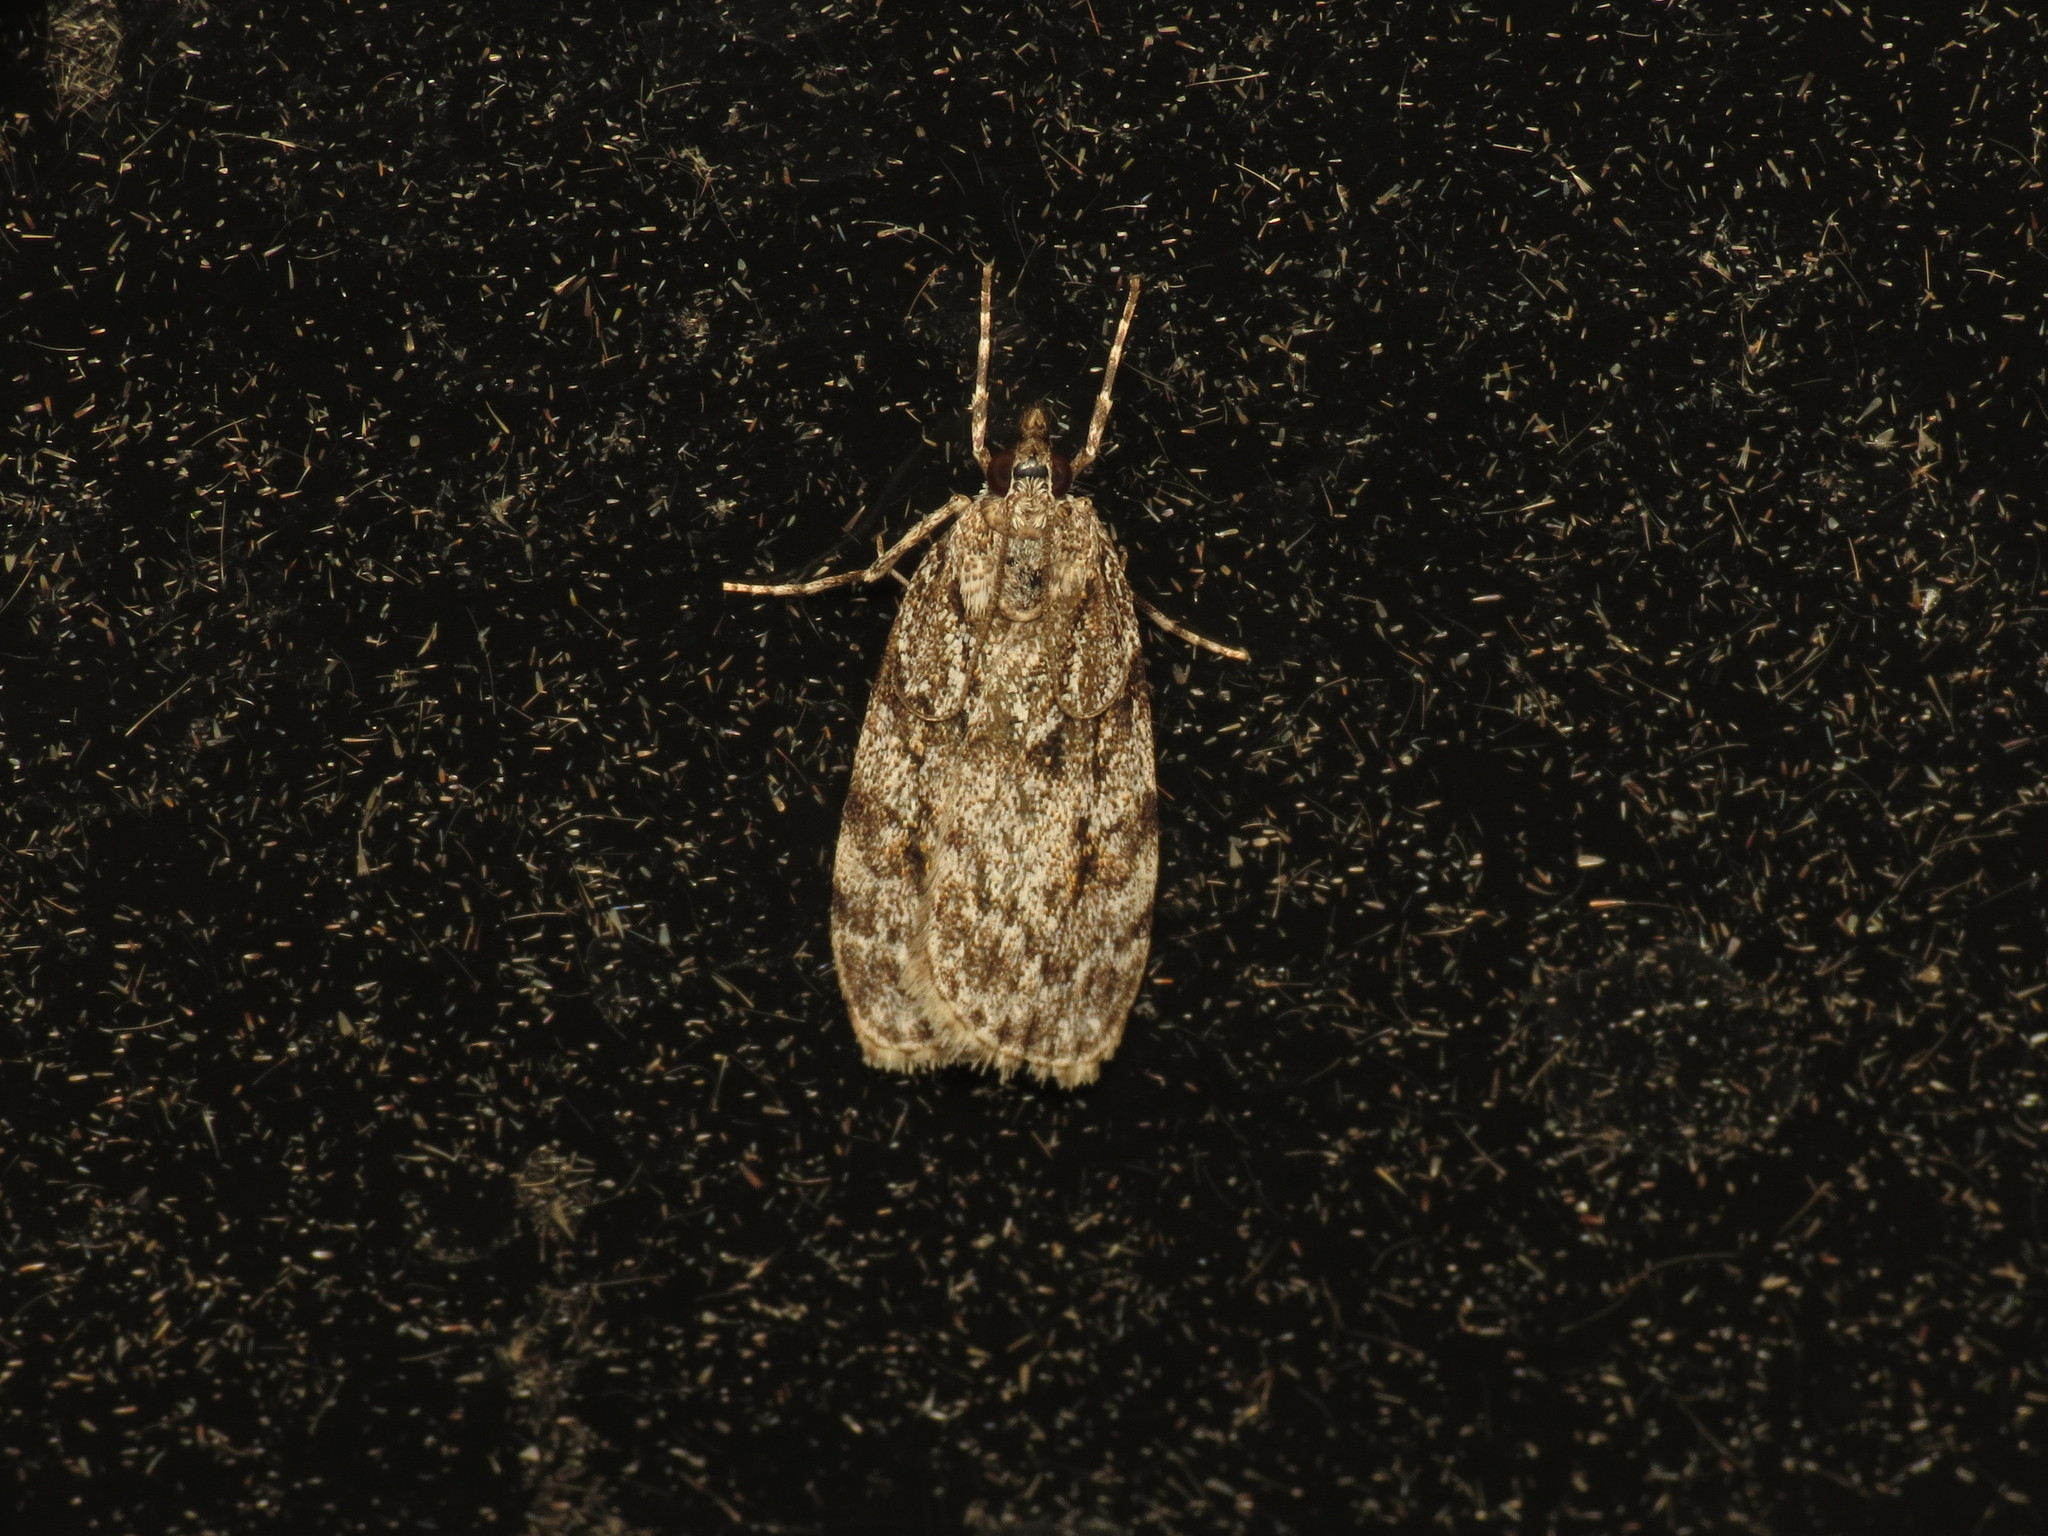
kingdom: Animalia
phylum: Arthropoda
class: Insecta
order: Lepidoptera
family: Crambidae
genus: Scoparia
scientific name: Scoparia ambigualis
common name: Common grey
